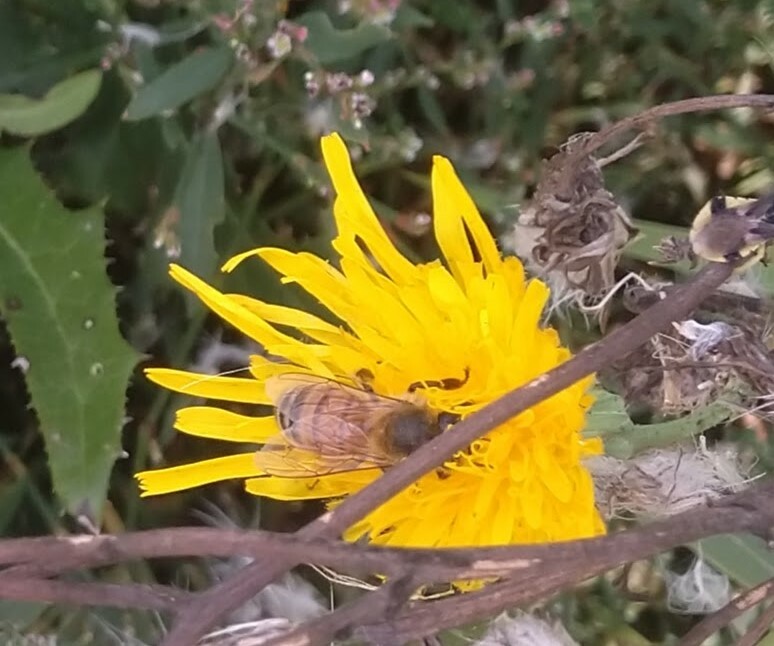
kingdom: Animalia
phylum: Arthropoda
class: Insecta
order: Hymenoptera
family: Apidae
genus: Apis
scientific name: Apis mellifera
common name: Honey bee
